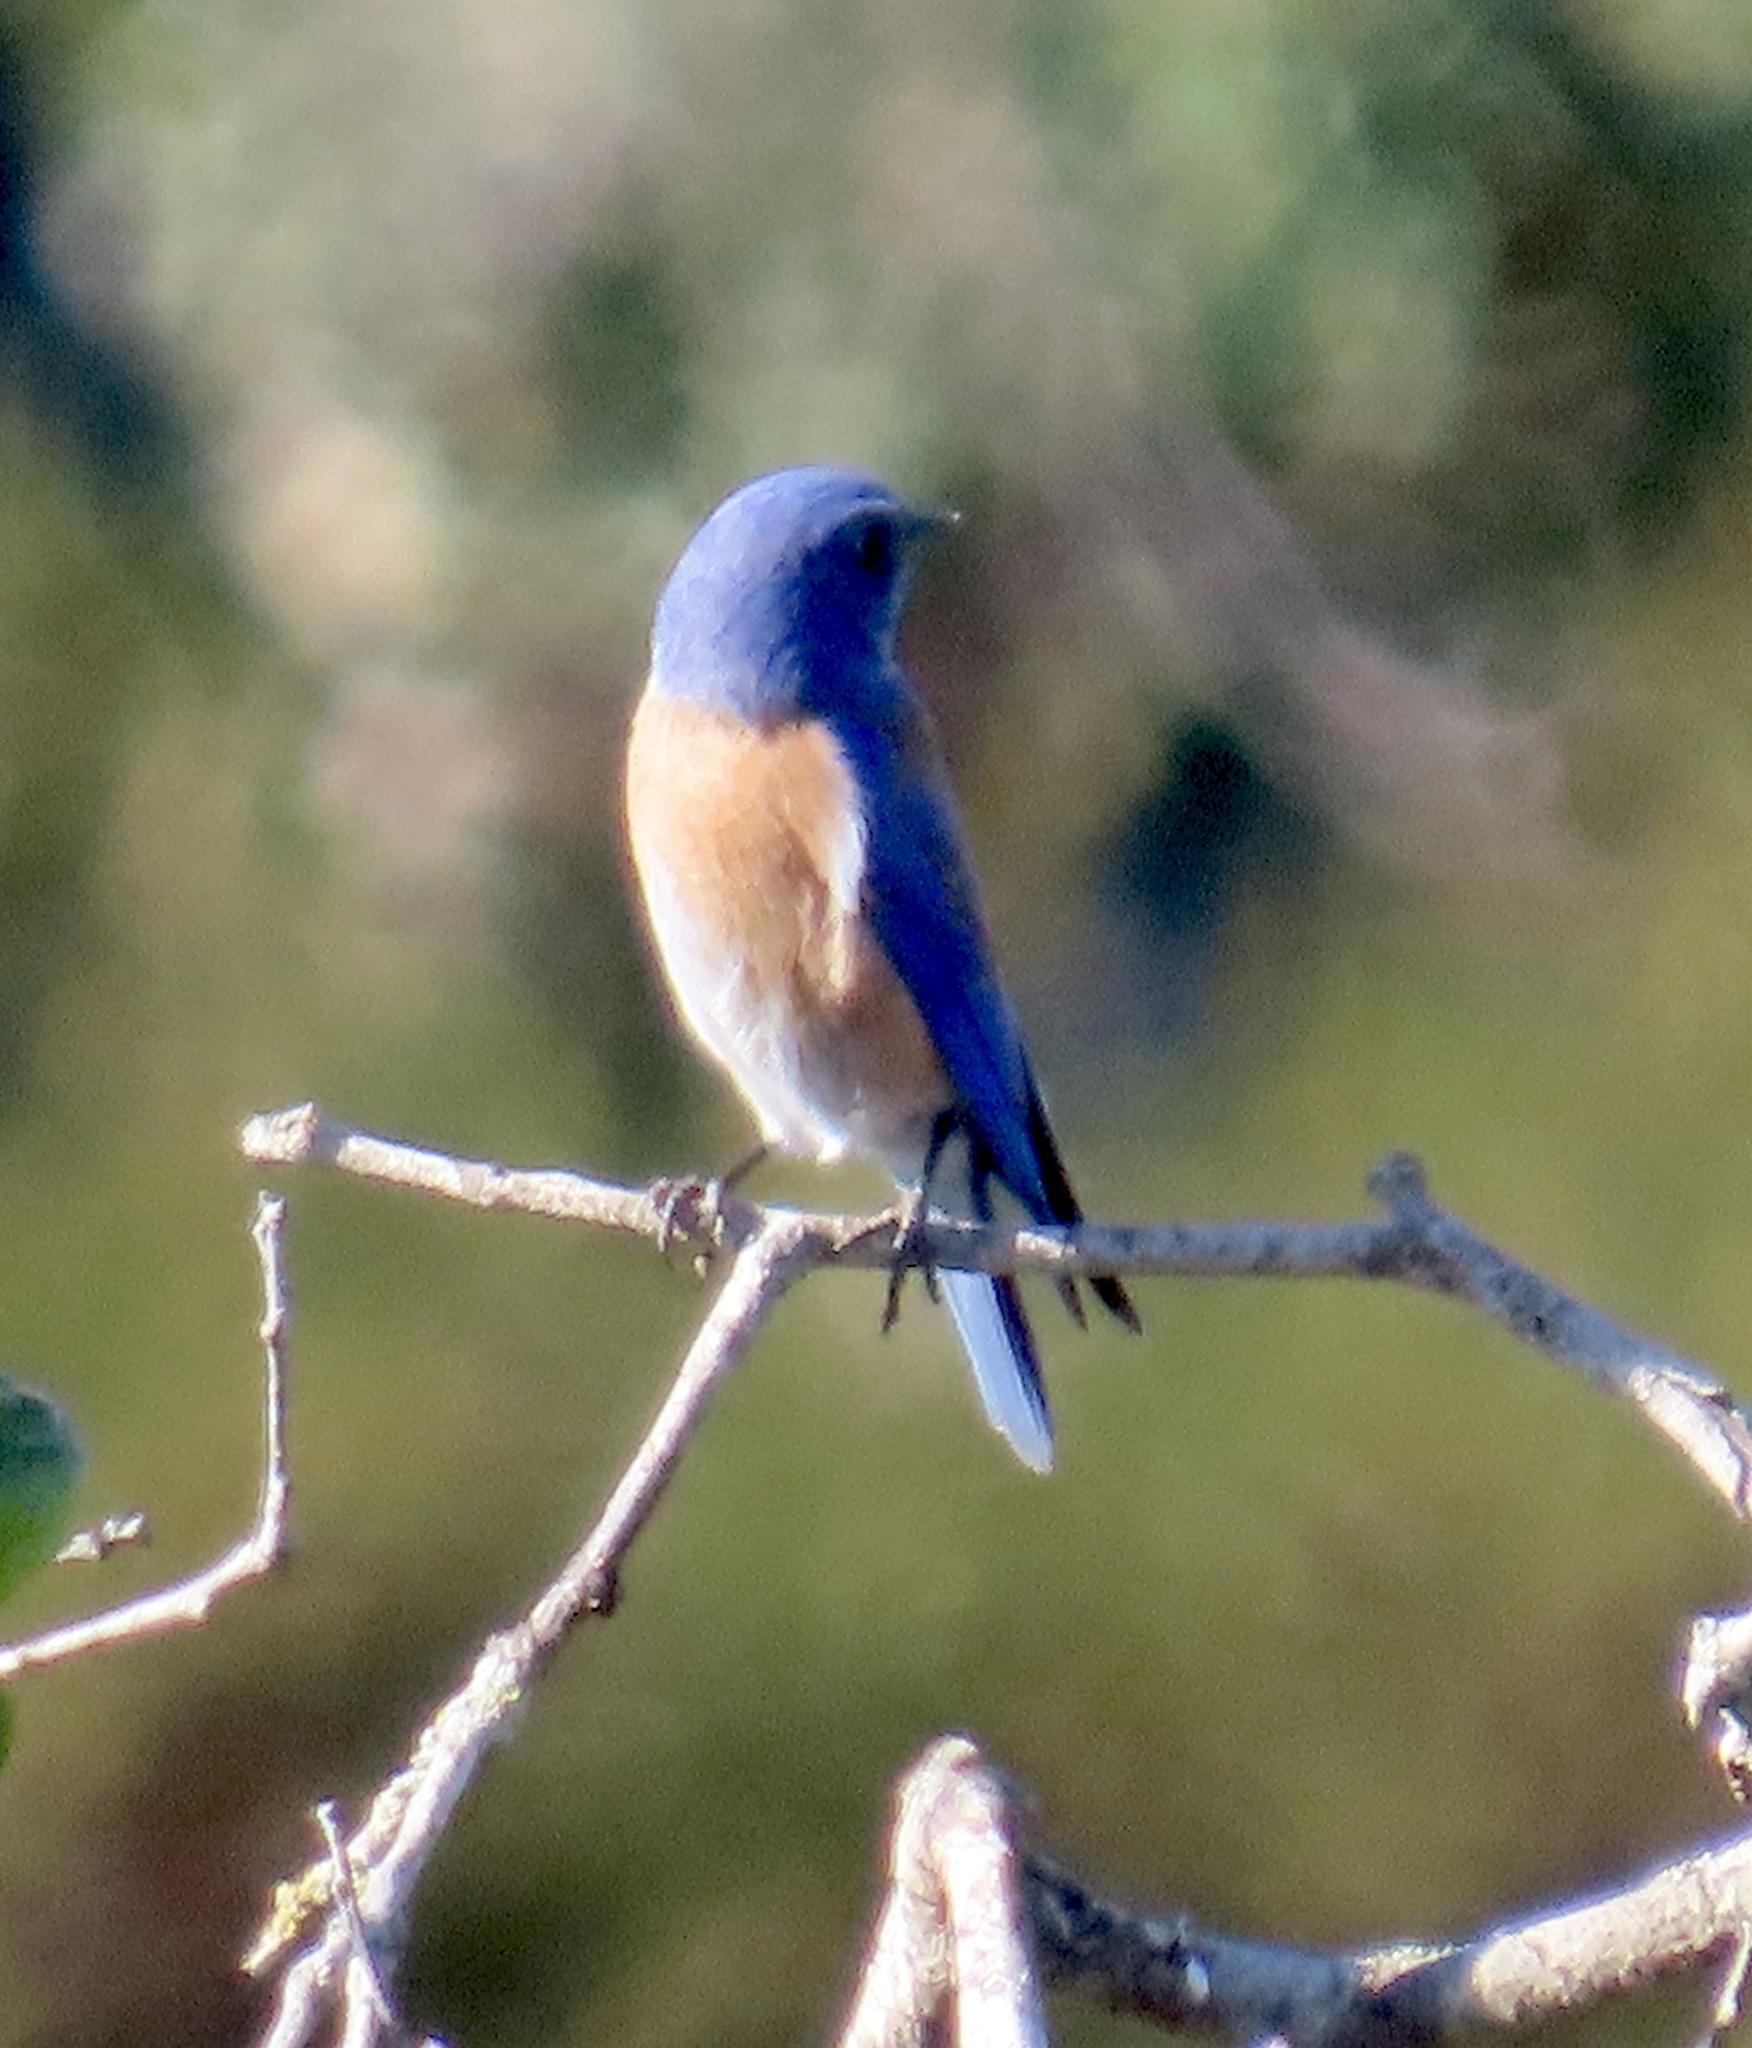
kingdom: Animalia
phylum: Chordata
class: Aves
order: Passeriformes
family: Turdidae
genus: Sialia
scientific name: Sialia mexicana
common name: Western bluebird
